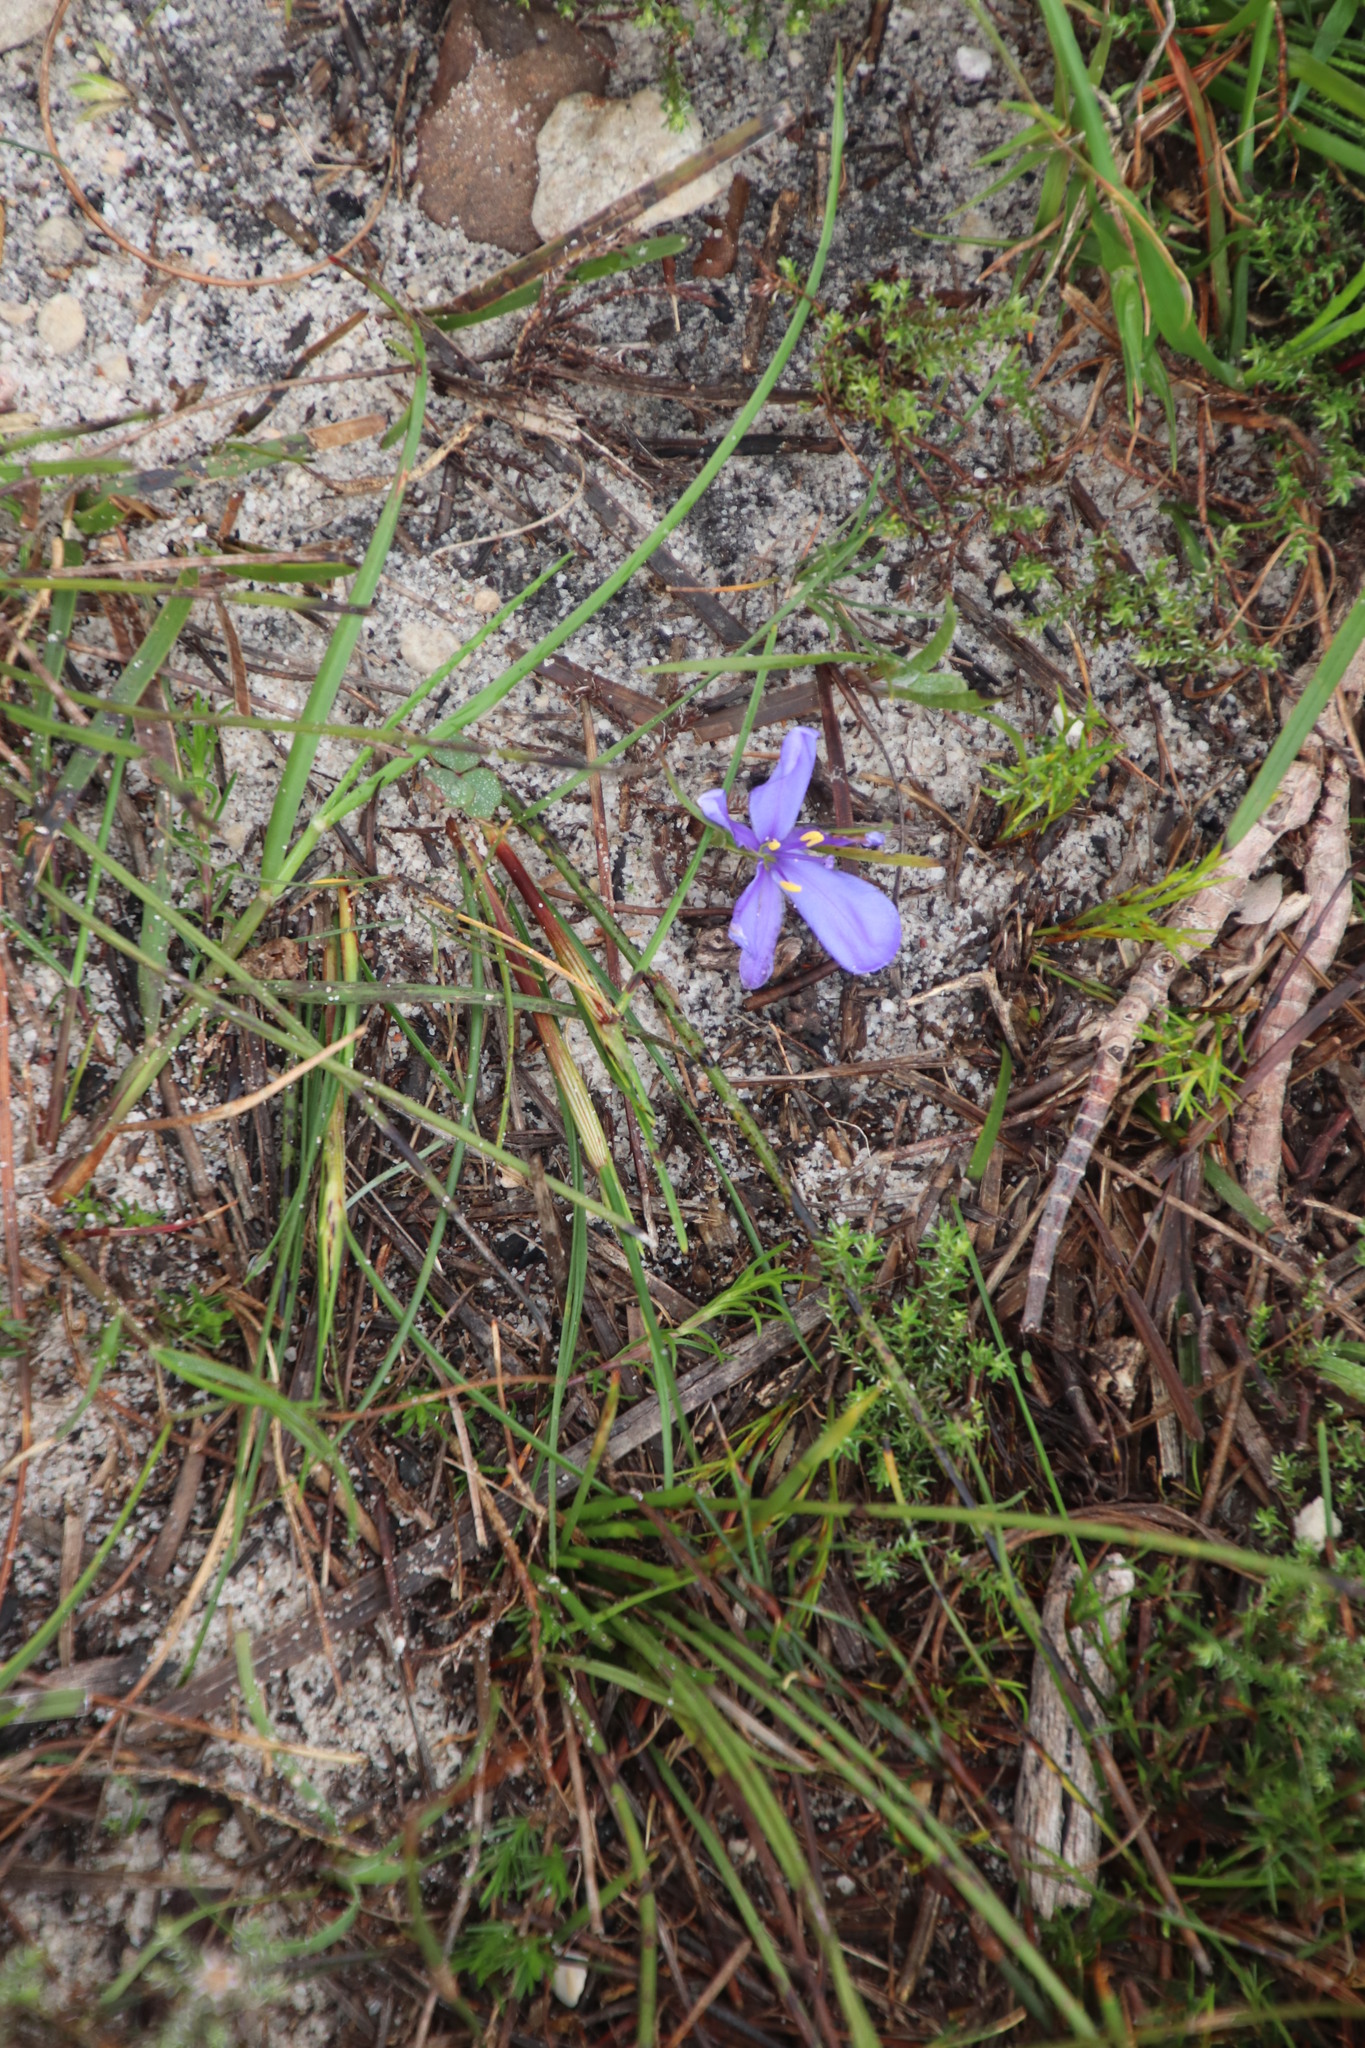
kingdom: Plantae
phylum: Tracheophyta
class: Liliopsida
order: Asparagales
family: Iridaceae
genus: Aristea
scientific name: Aristea africana
